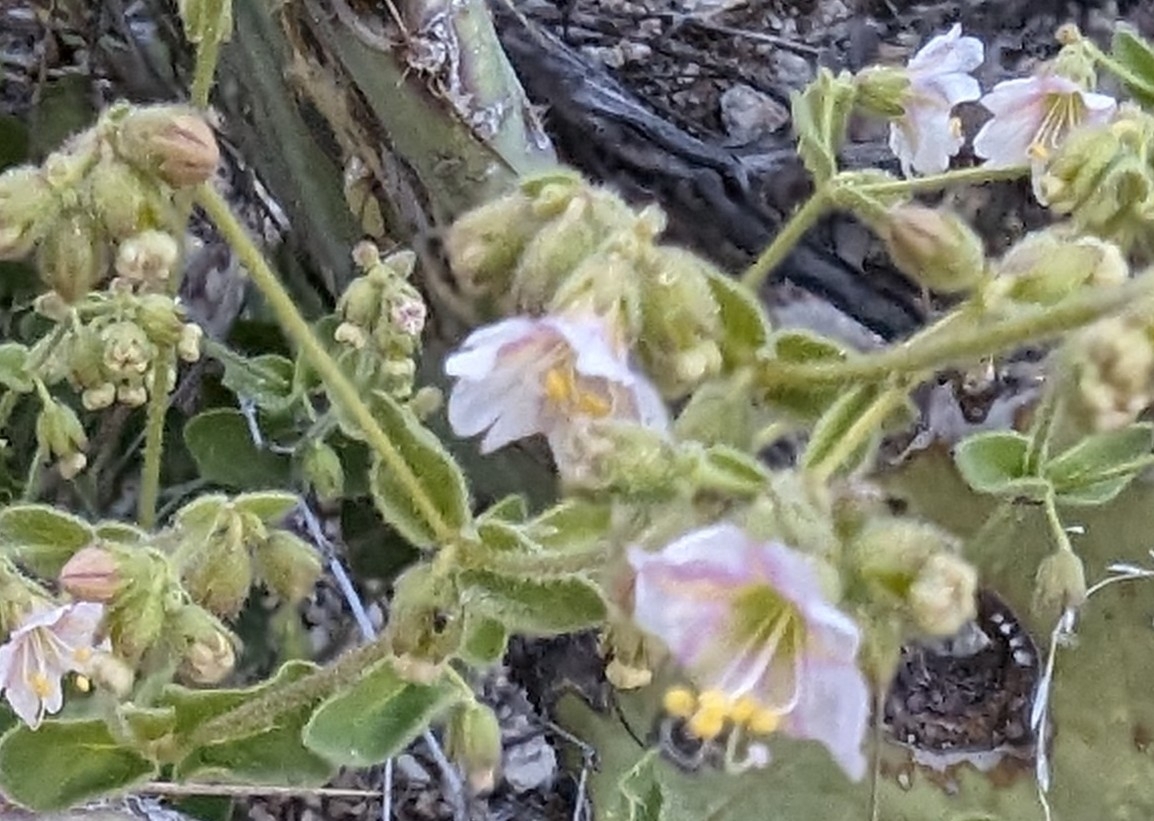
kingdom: Plantae
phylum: Tracheophyta
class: Magnoliopsida
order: Caryophyllales
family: Nyctaginaceae
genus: Mirabilis
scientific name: Mirabilis laevis
